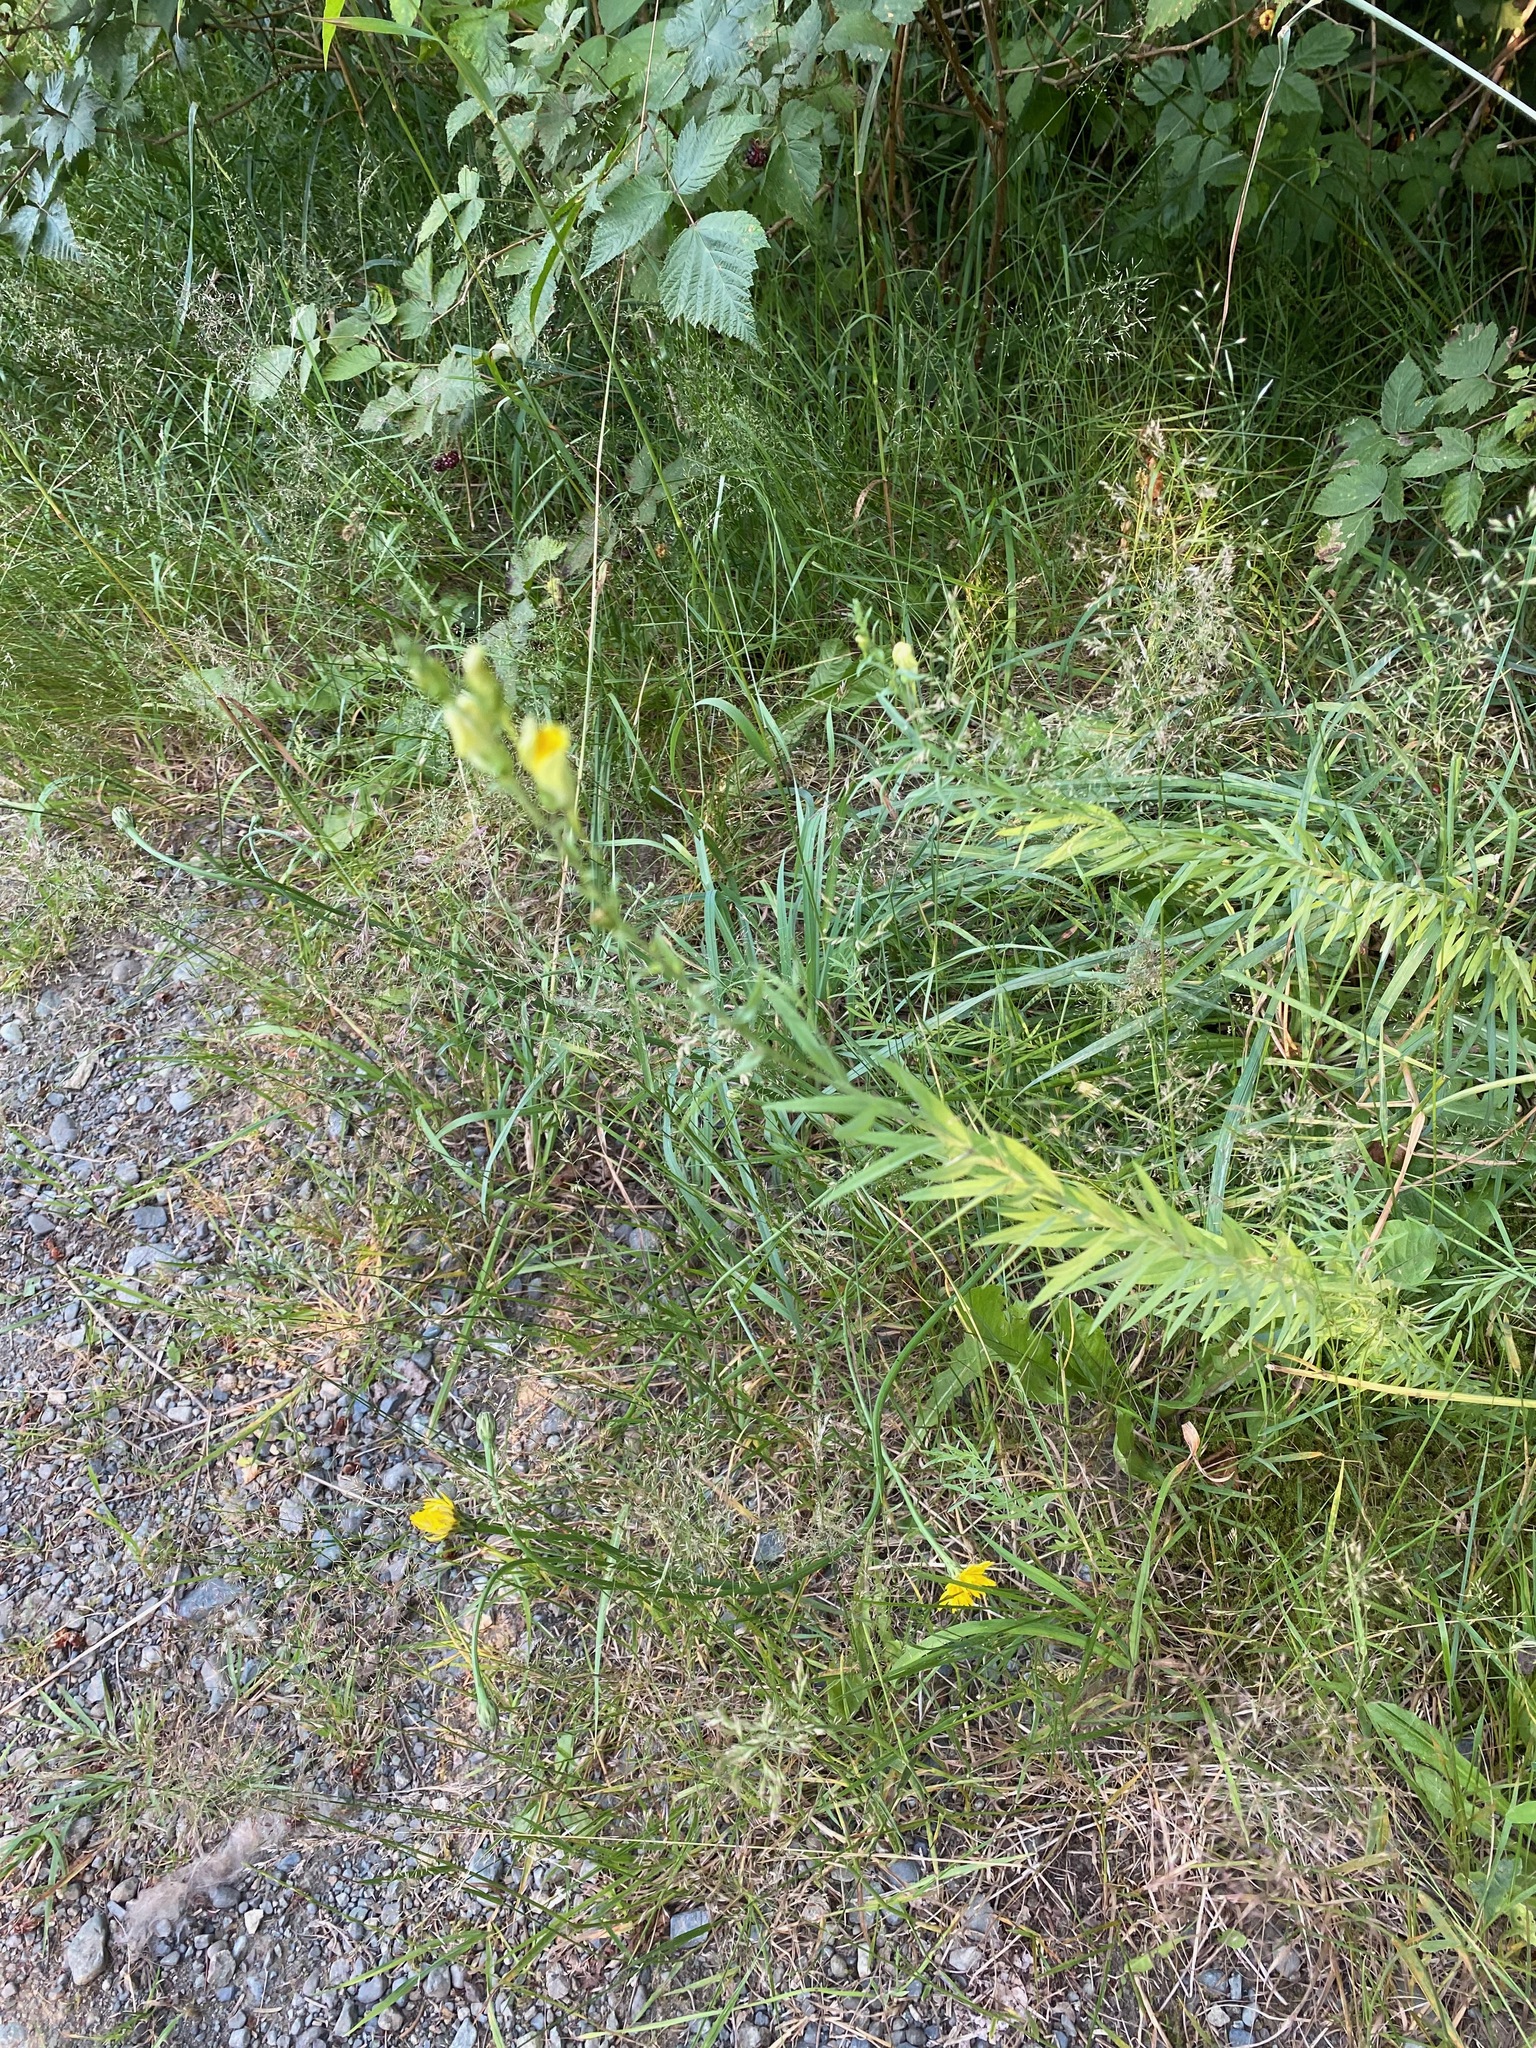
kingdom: Plantae
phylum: Tracheophyta
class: Magnoliopsida
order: Lamiales
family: Plantaginaceae
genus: Linaria
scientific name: Linaria vulgaris
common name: Butter and eggs
